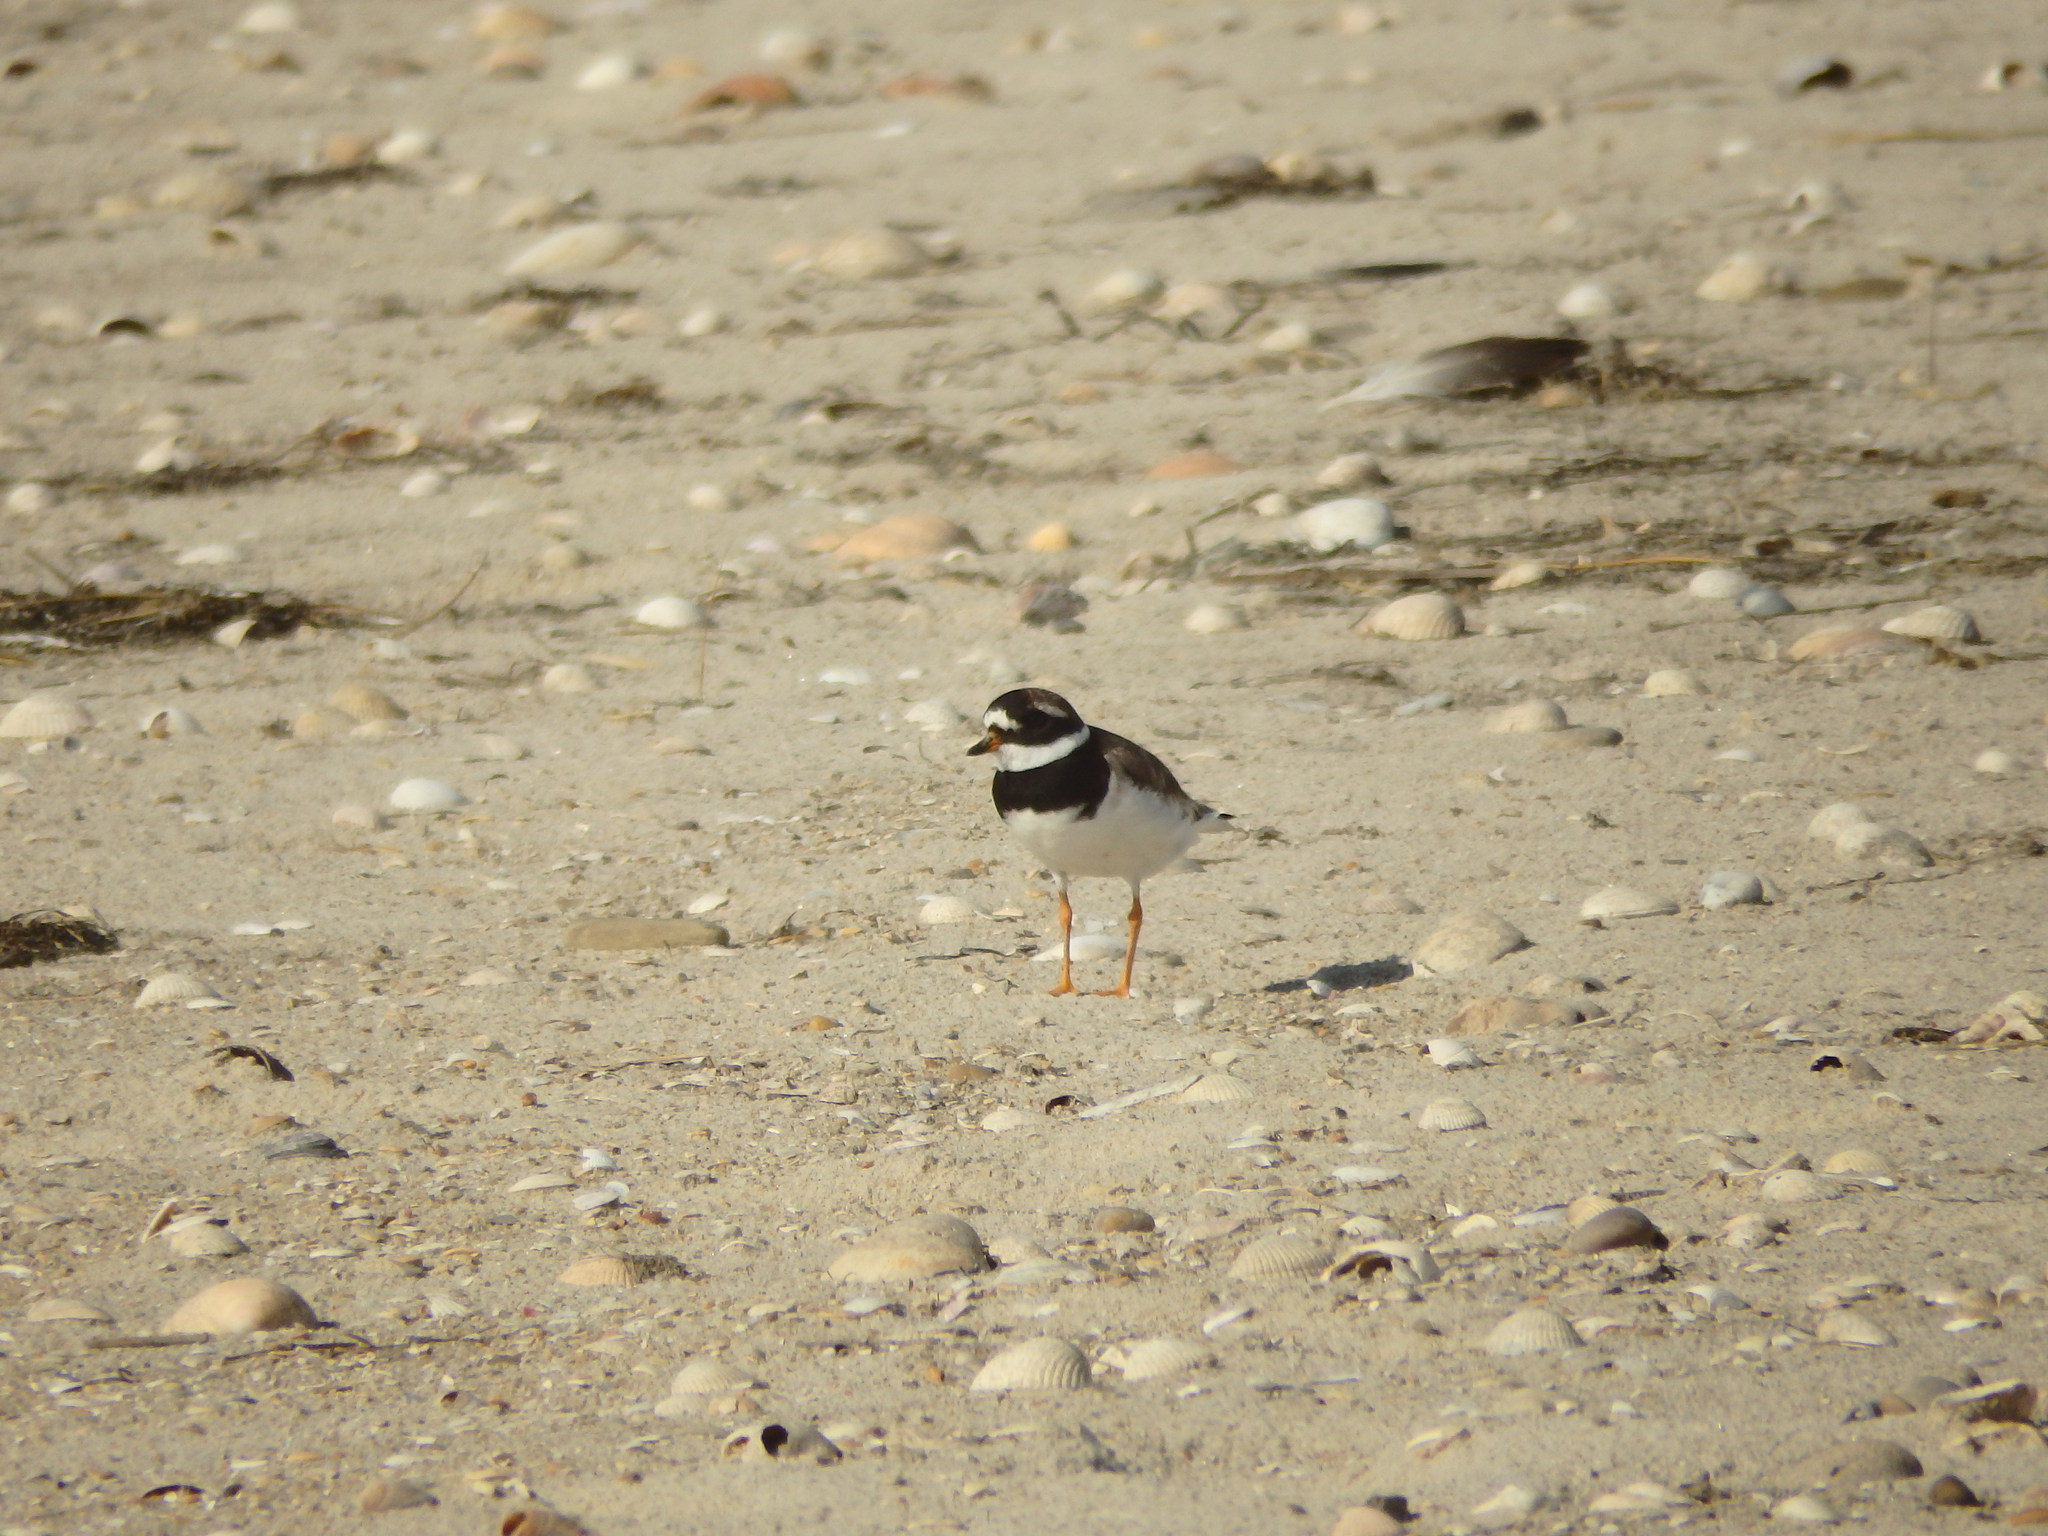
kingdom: Animalia
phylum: Chordata
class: Aves
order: Charadriiformes
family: Charadriidae
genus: Charadrius
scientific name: Charadrius hiaticula
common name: Common ringed plover
